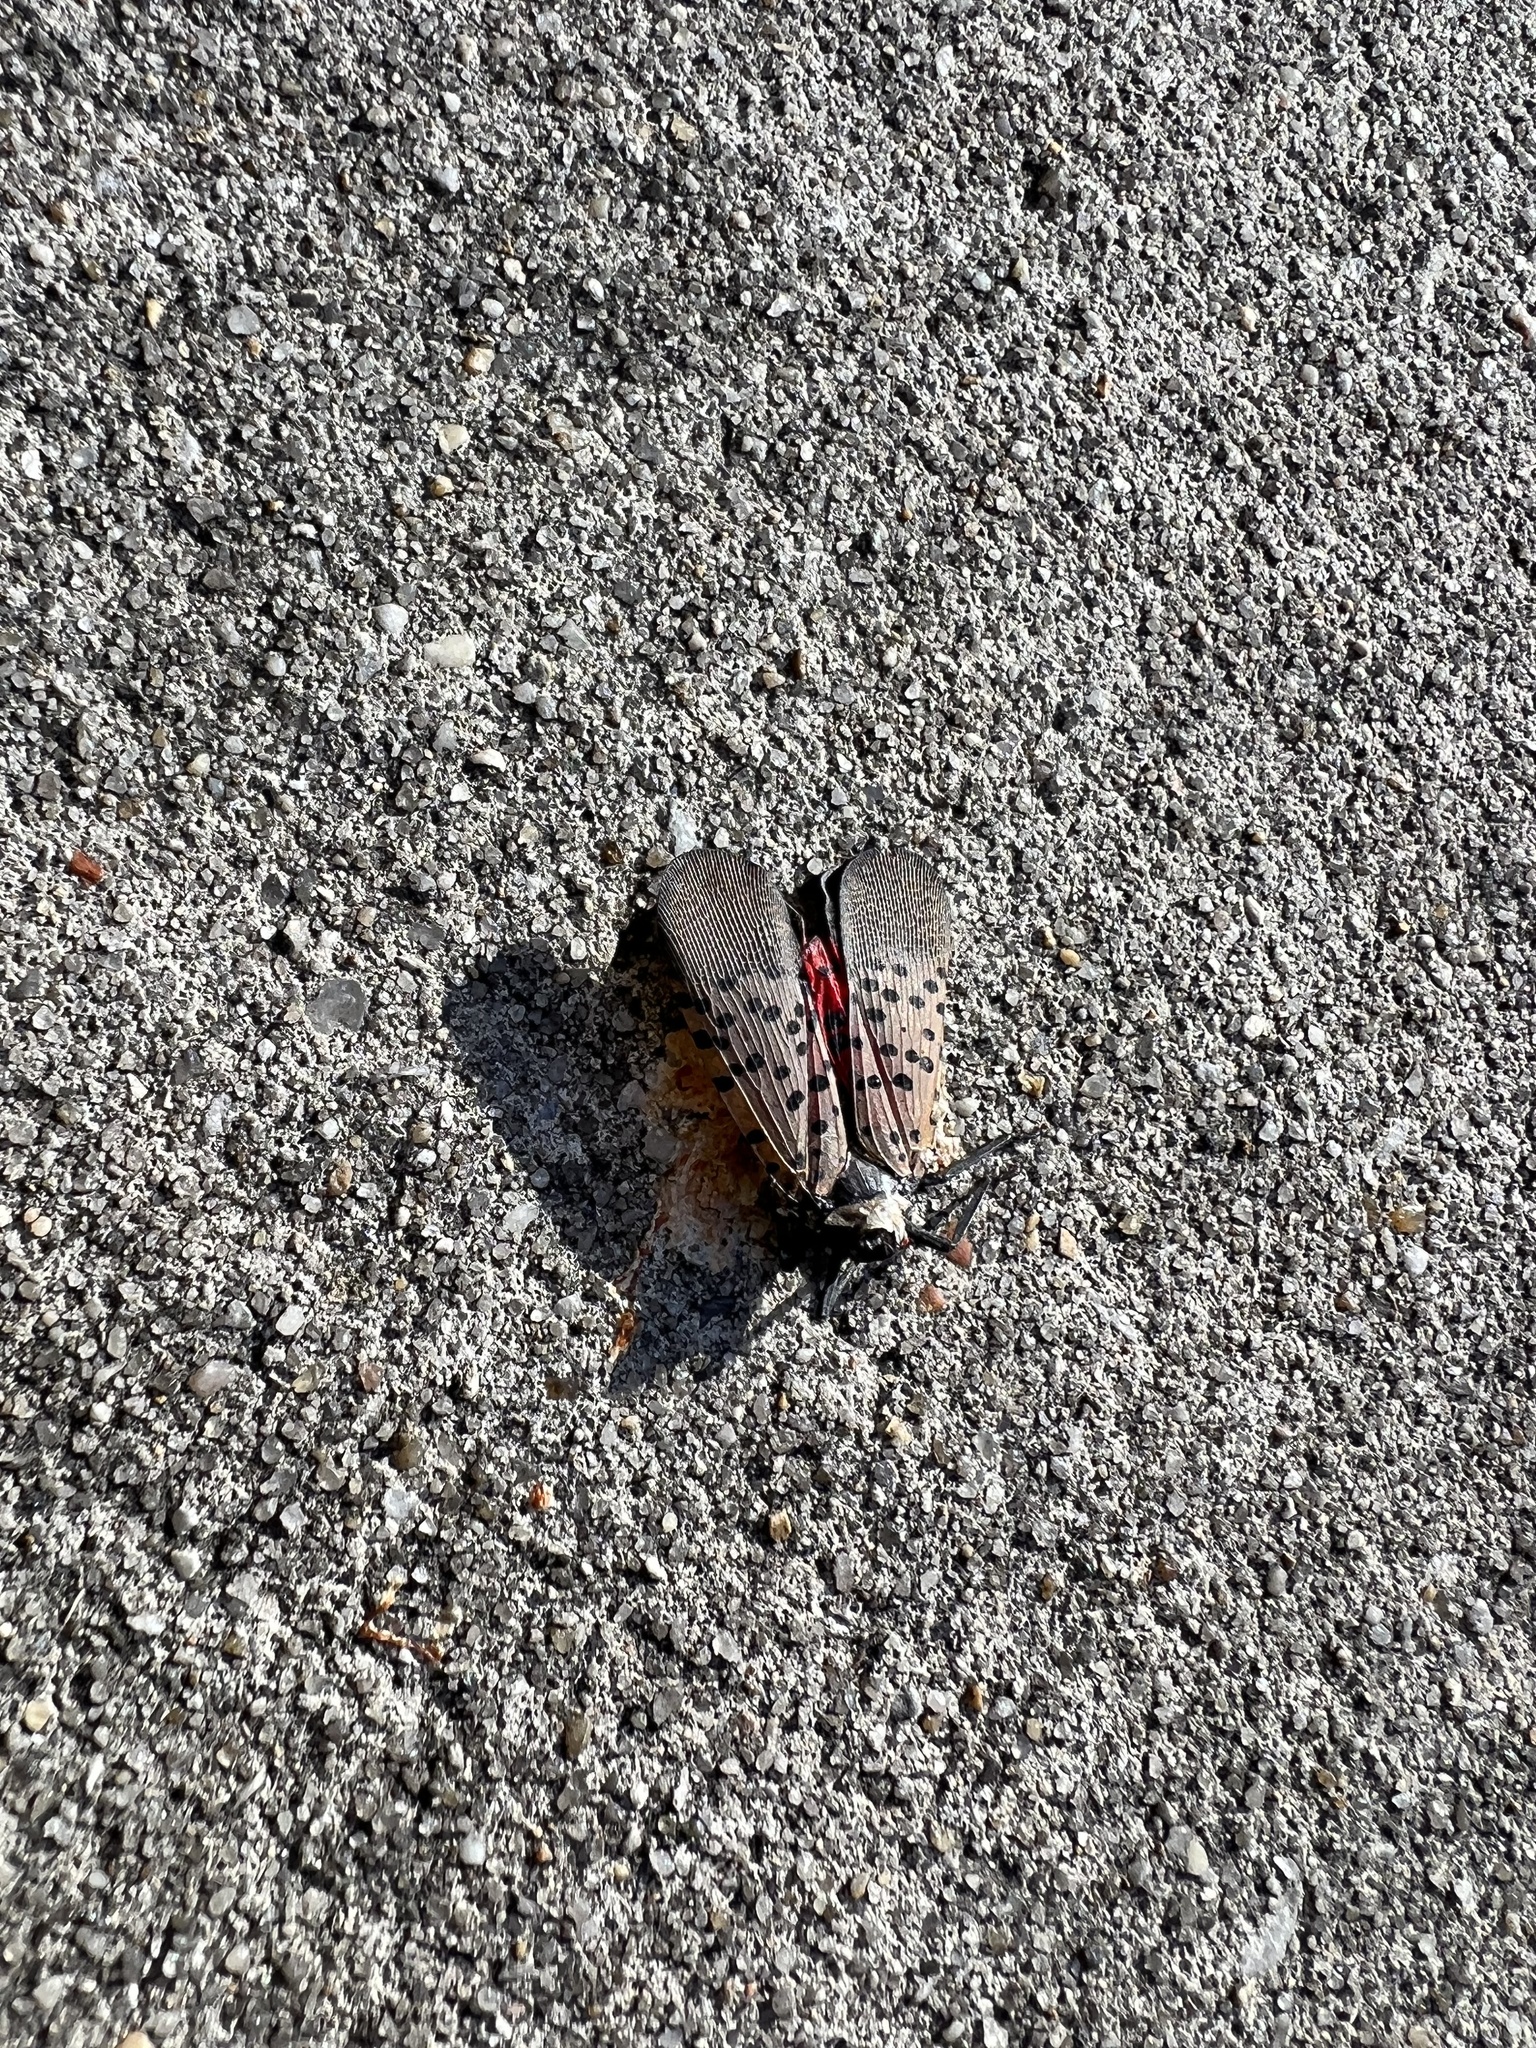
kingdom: Animalia
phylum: Arthropoda
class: Insecta
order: Hemiptera
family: Fulgoridae
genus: Lycorma
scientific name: Lycorma delicatula
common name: Spotted lanternfly
